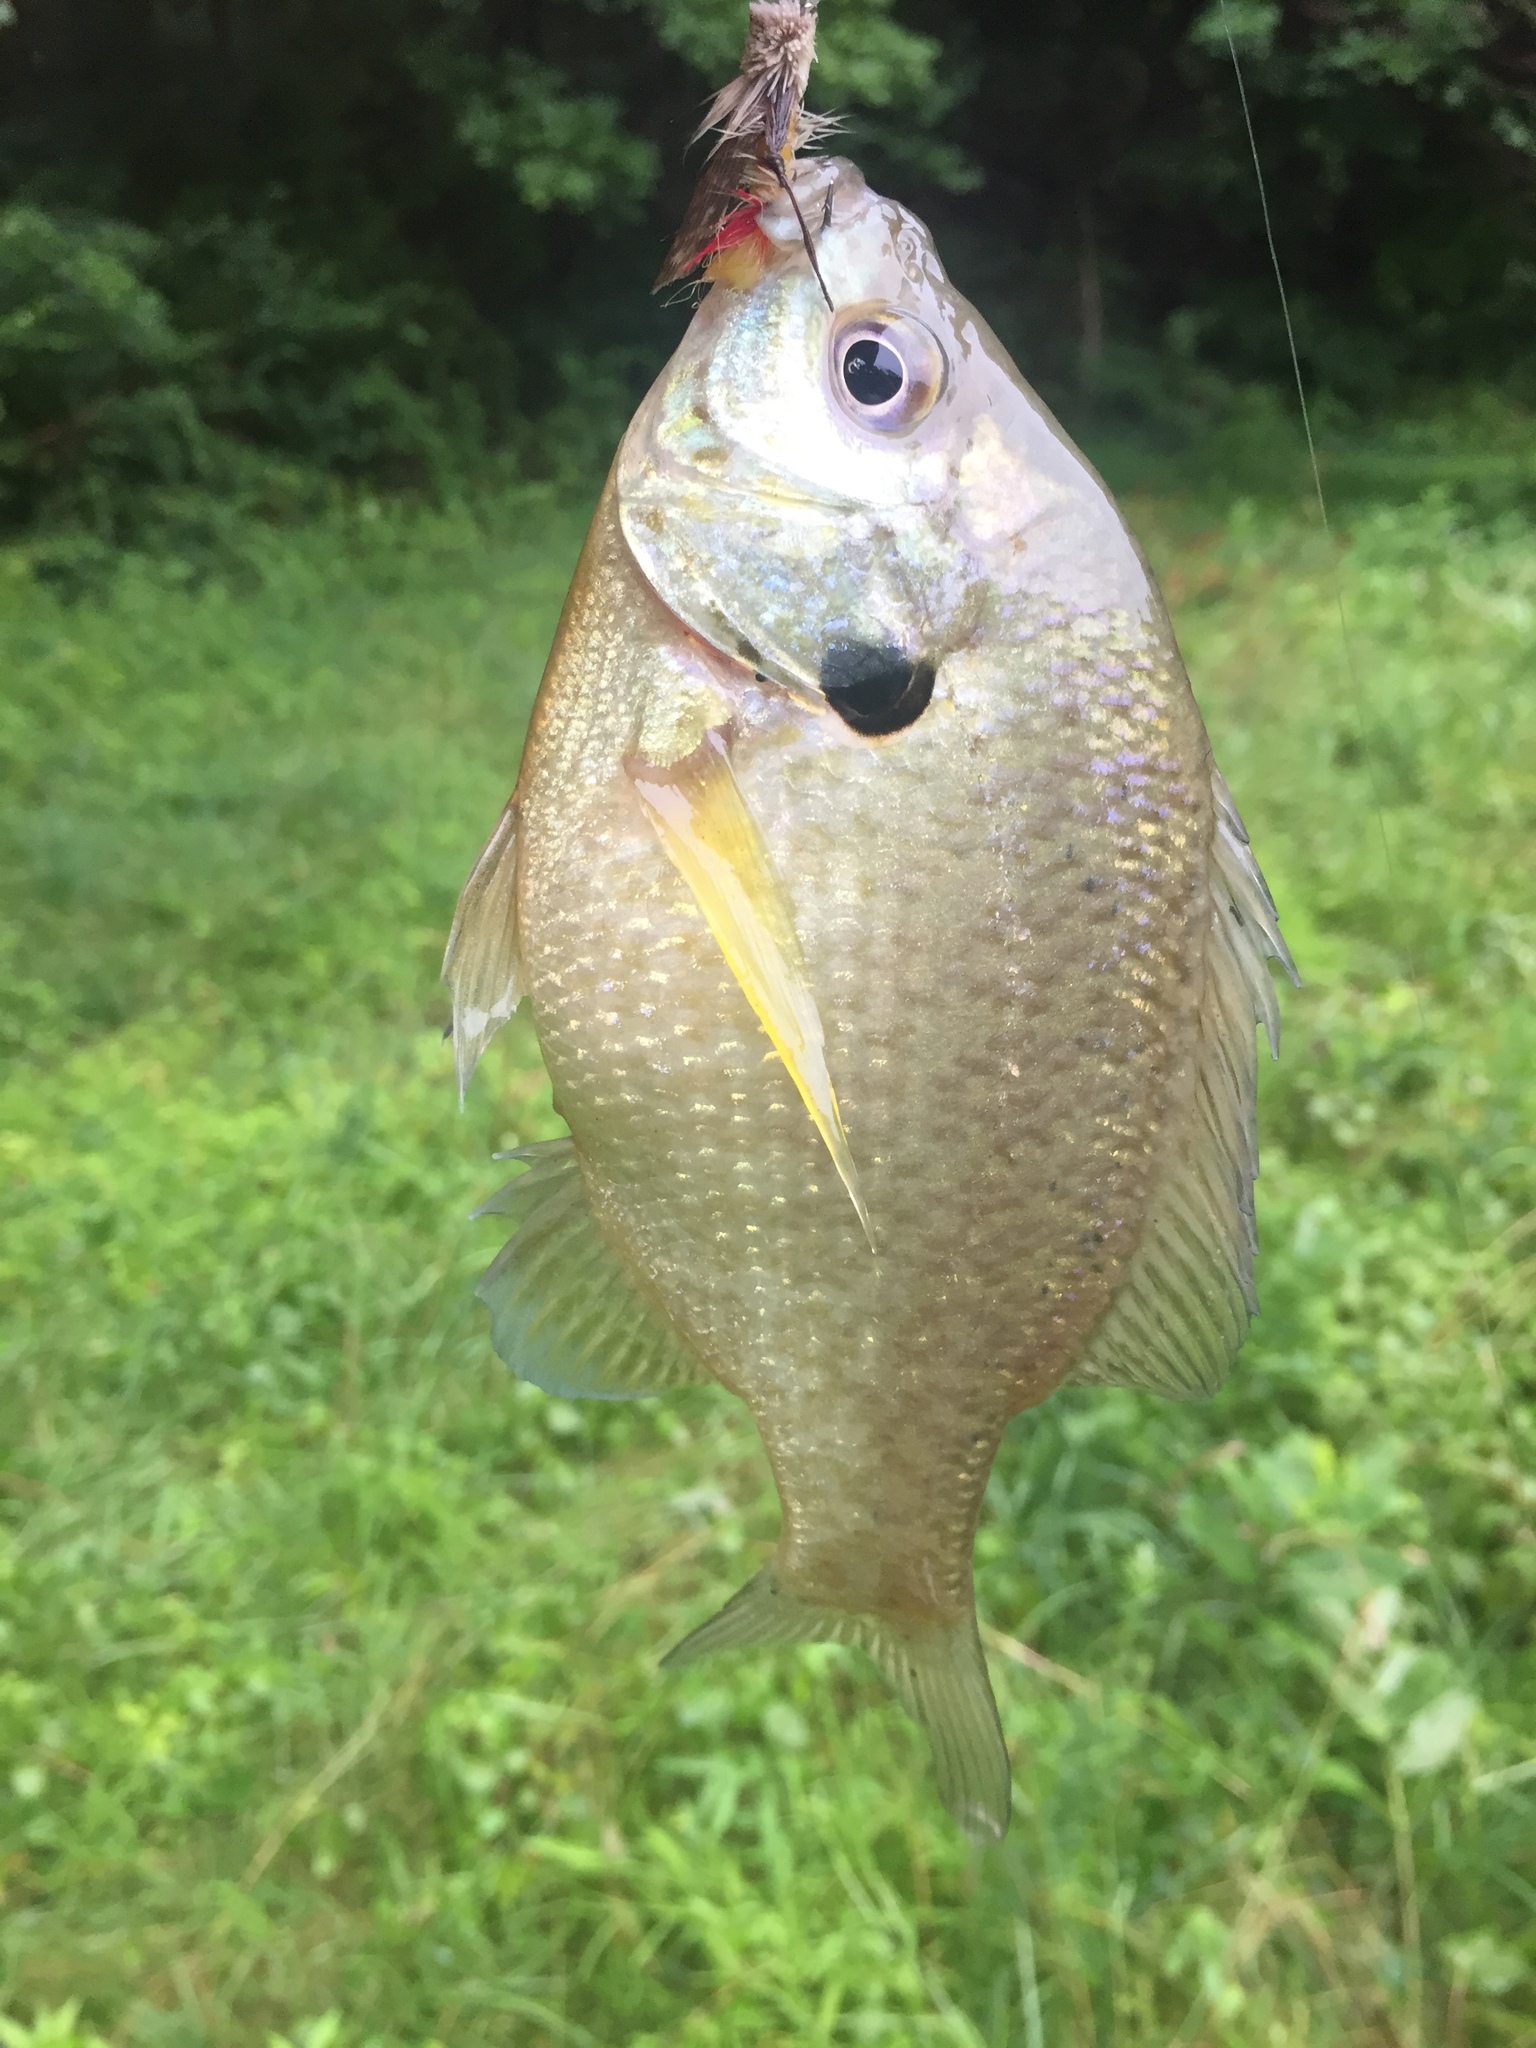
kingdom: Animalia
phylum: Chordata
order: Perciformes
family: Centrarchidae
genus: Lepomis
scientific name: Lepomis macrochirus
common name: Bluegill
